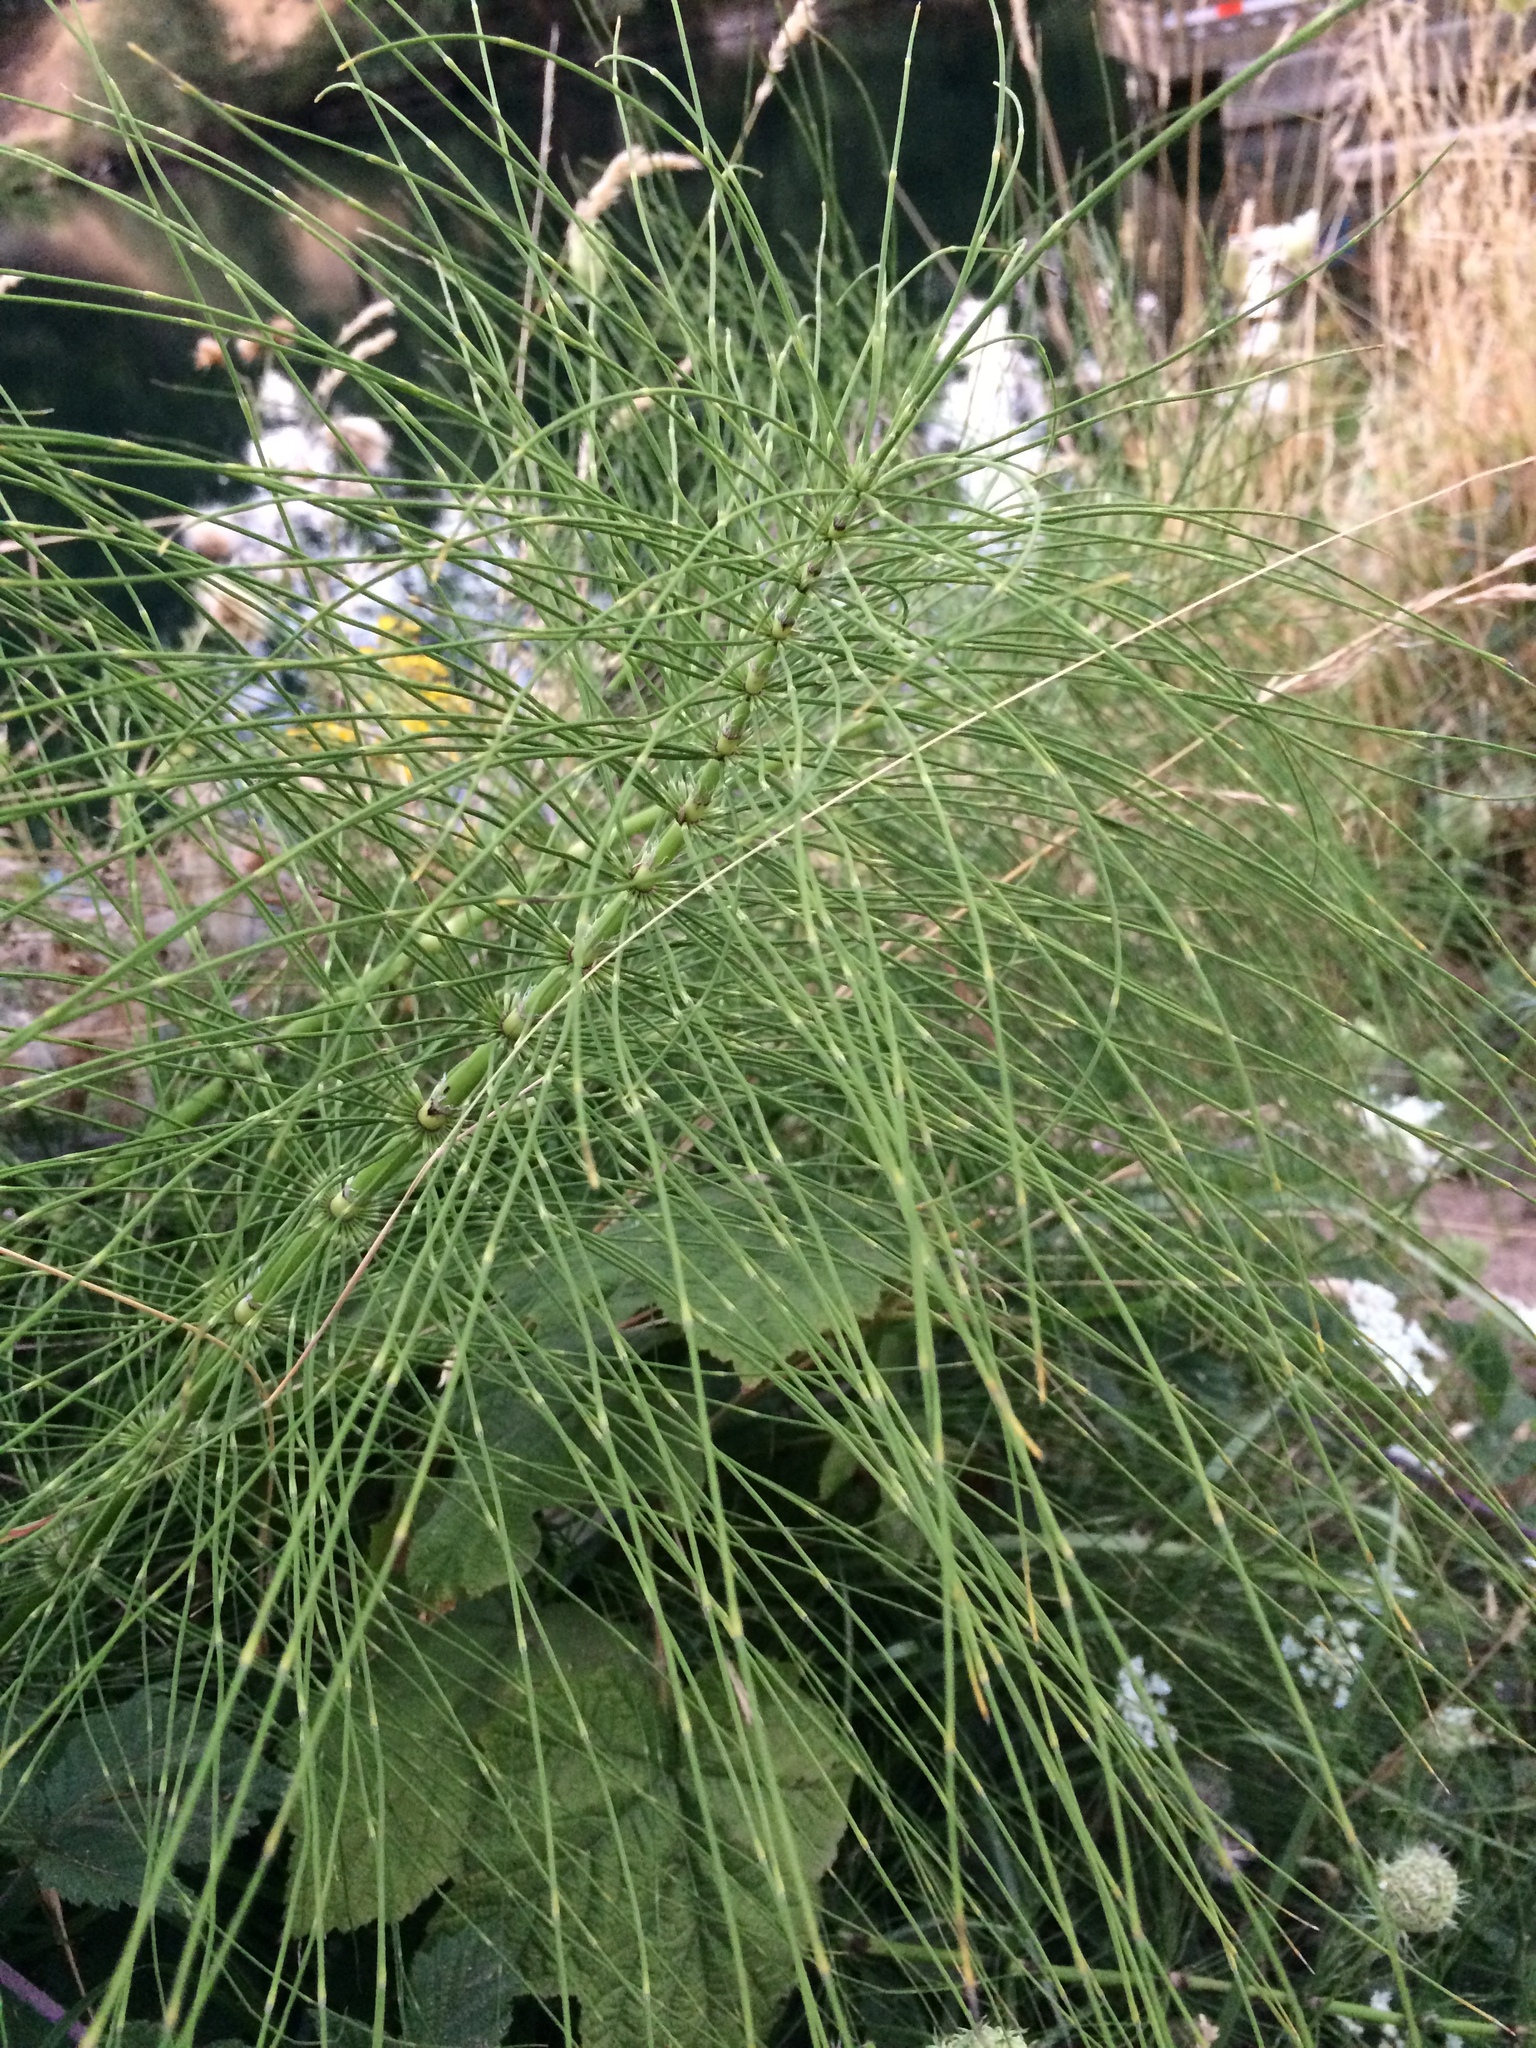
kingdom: Plantae
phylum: Tracheophyta
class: Polypodiopsida
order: Equisetales
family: Equisetaceae
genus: Equisetum
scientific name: Equisetum telmateia
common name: Great horsetail
